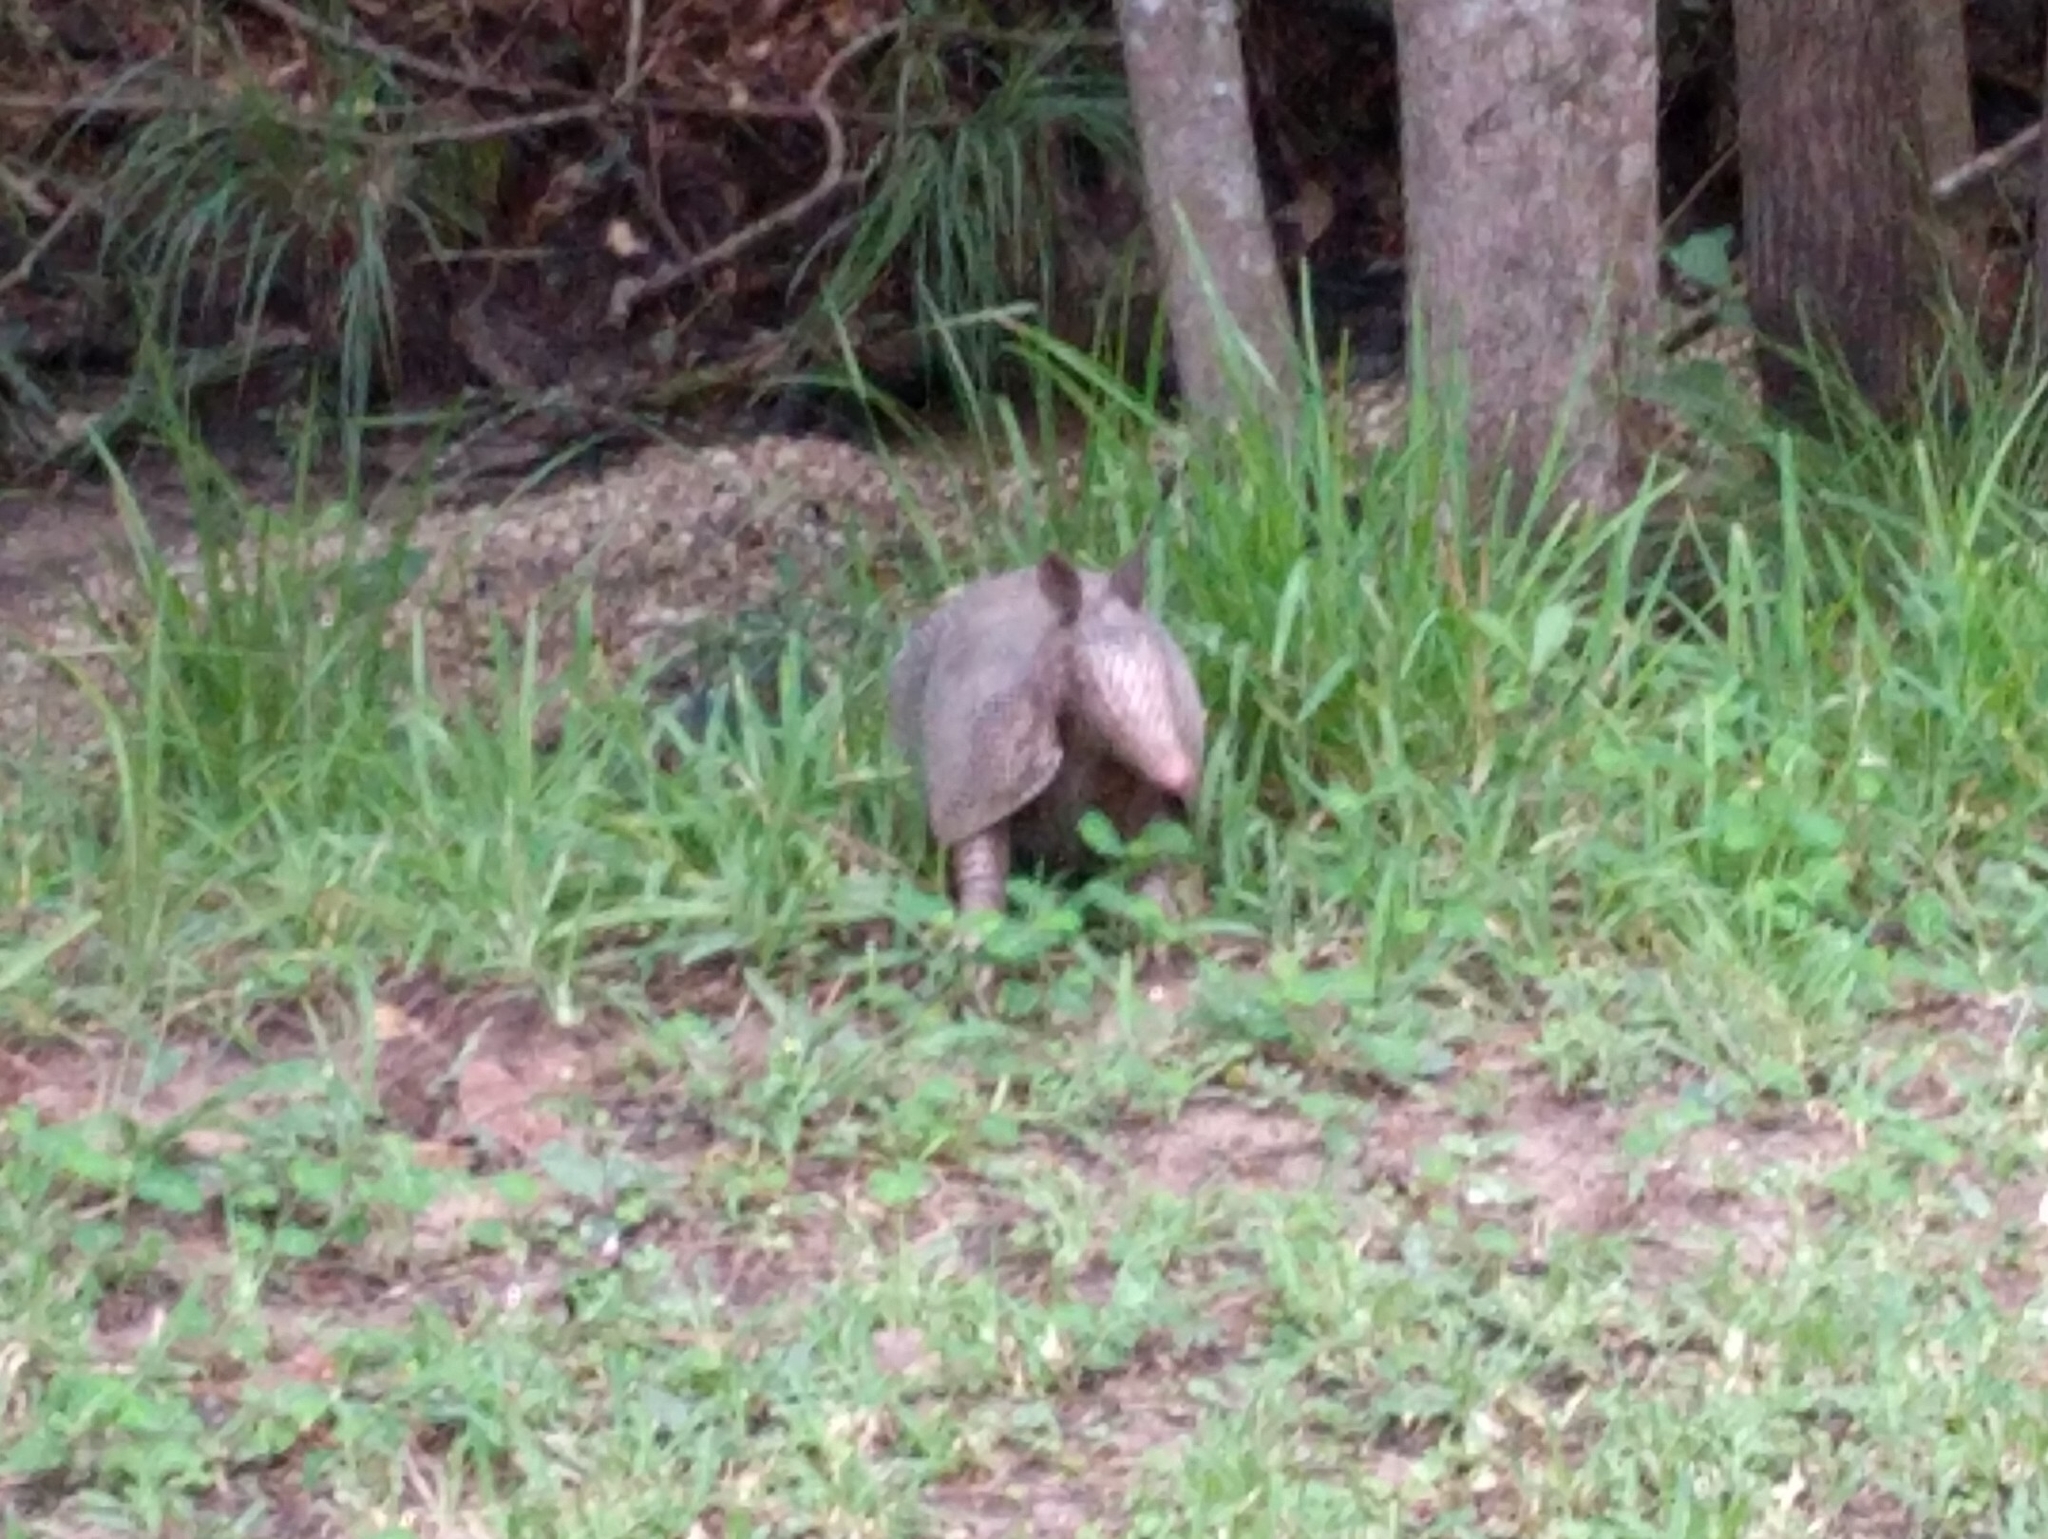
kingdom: Animalia
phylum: Chordata
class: Mammalia
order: Cingulata
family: Dasypodidae
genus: Dasypus
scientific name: Dasypus novemcinctus
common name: Nine-banded armadillo
